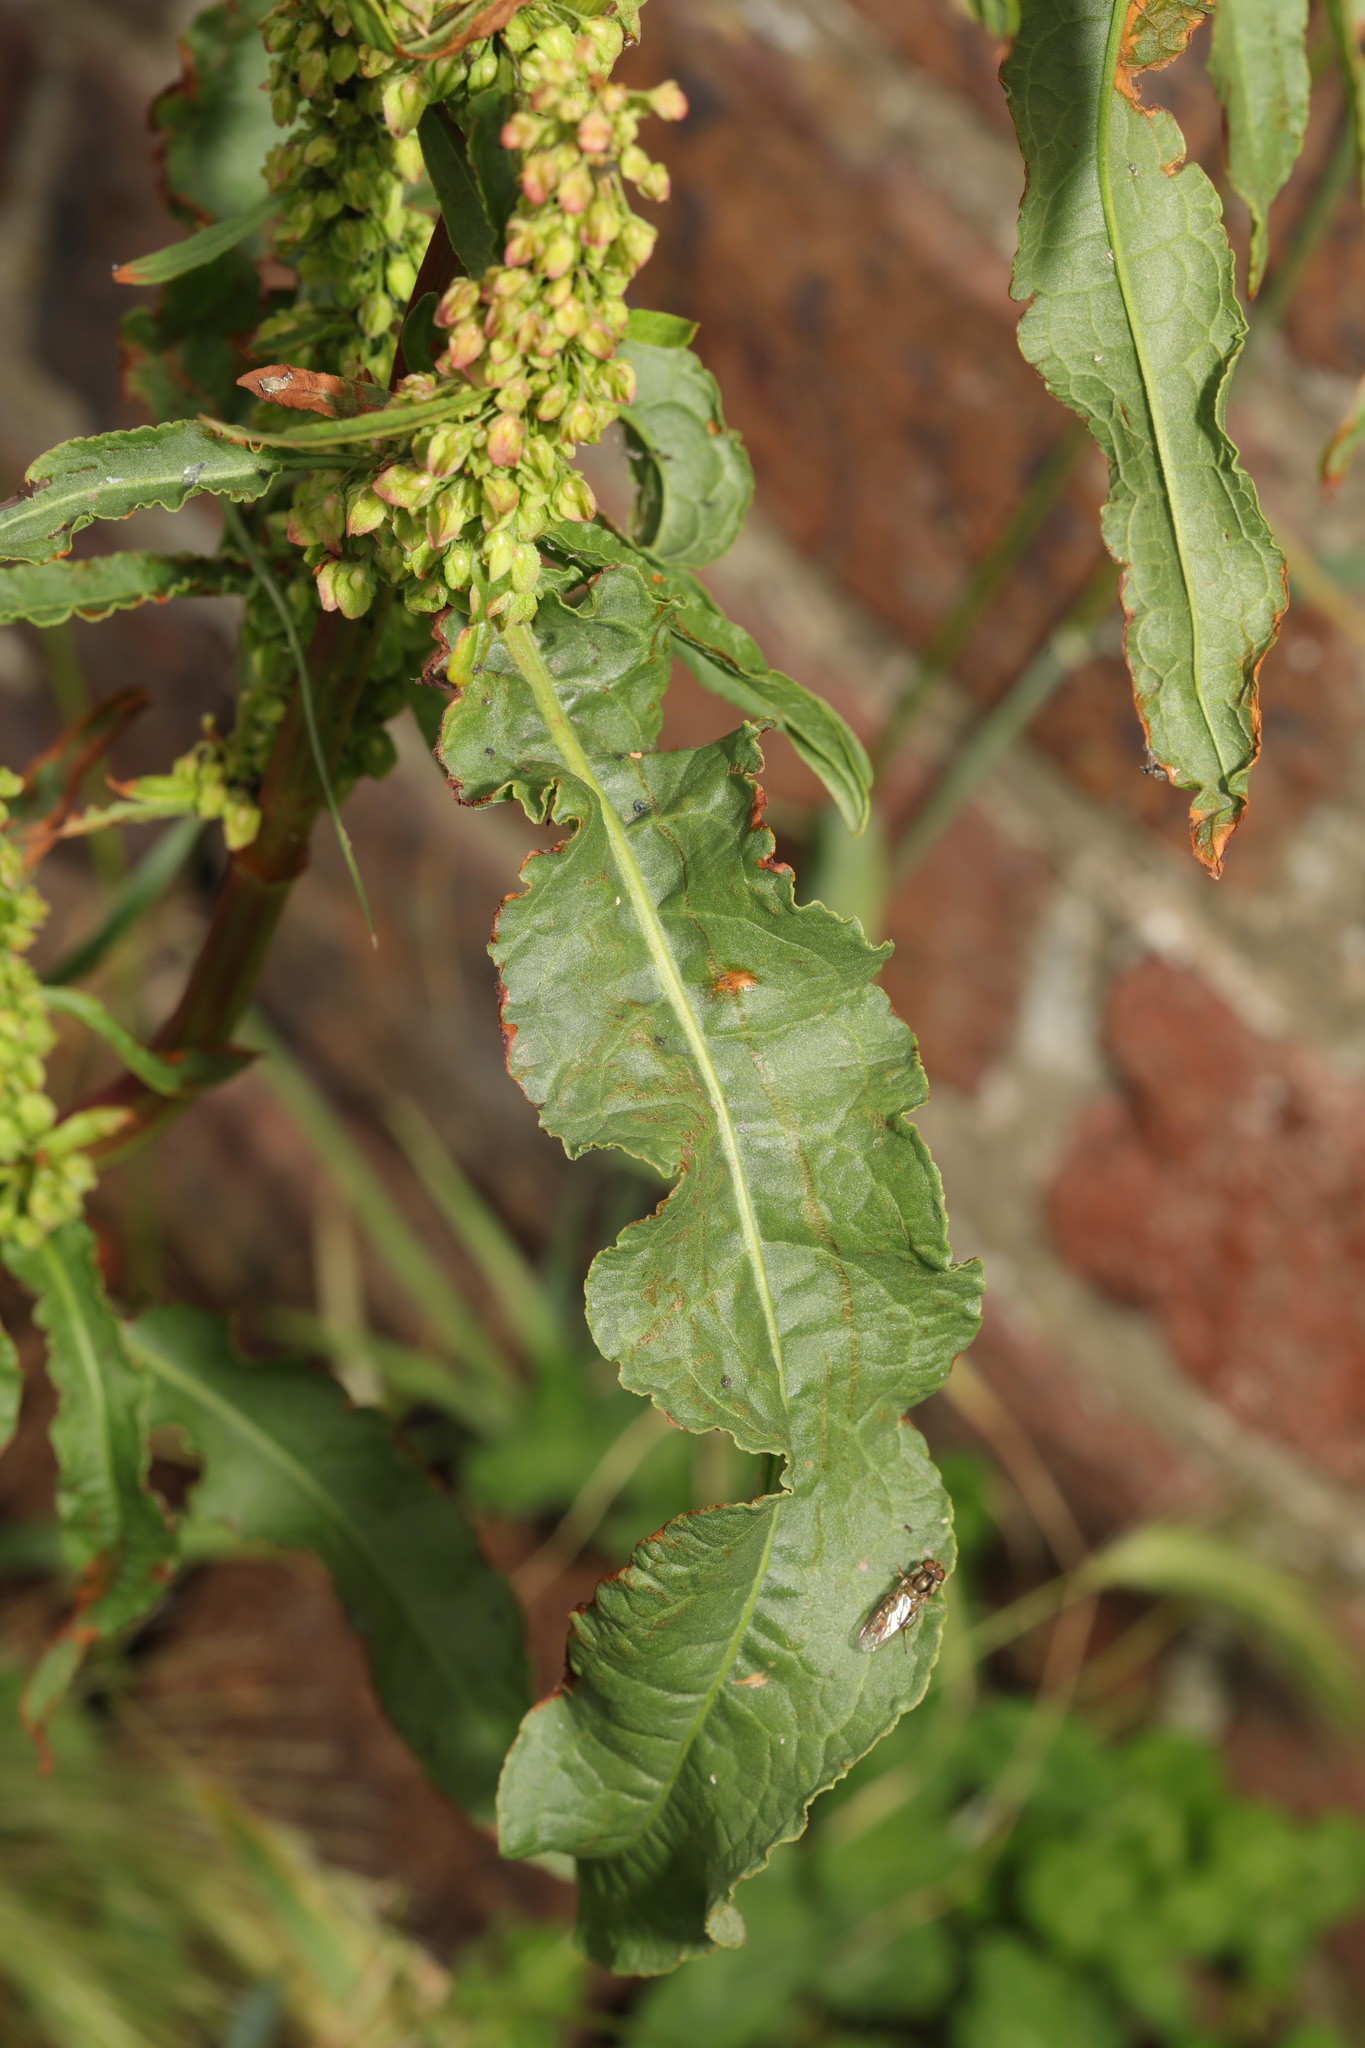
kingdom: Plantae
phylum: Tracheophyta
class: Magnoliopsida
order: Caryophyllales
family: Polygonaceae
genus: Rumex
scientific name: Rumex crispus
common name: Curled dock
